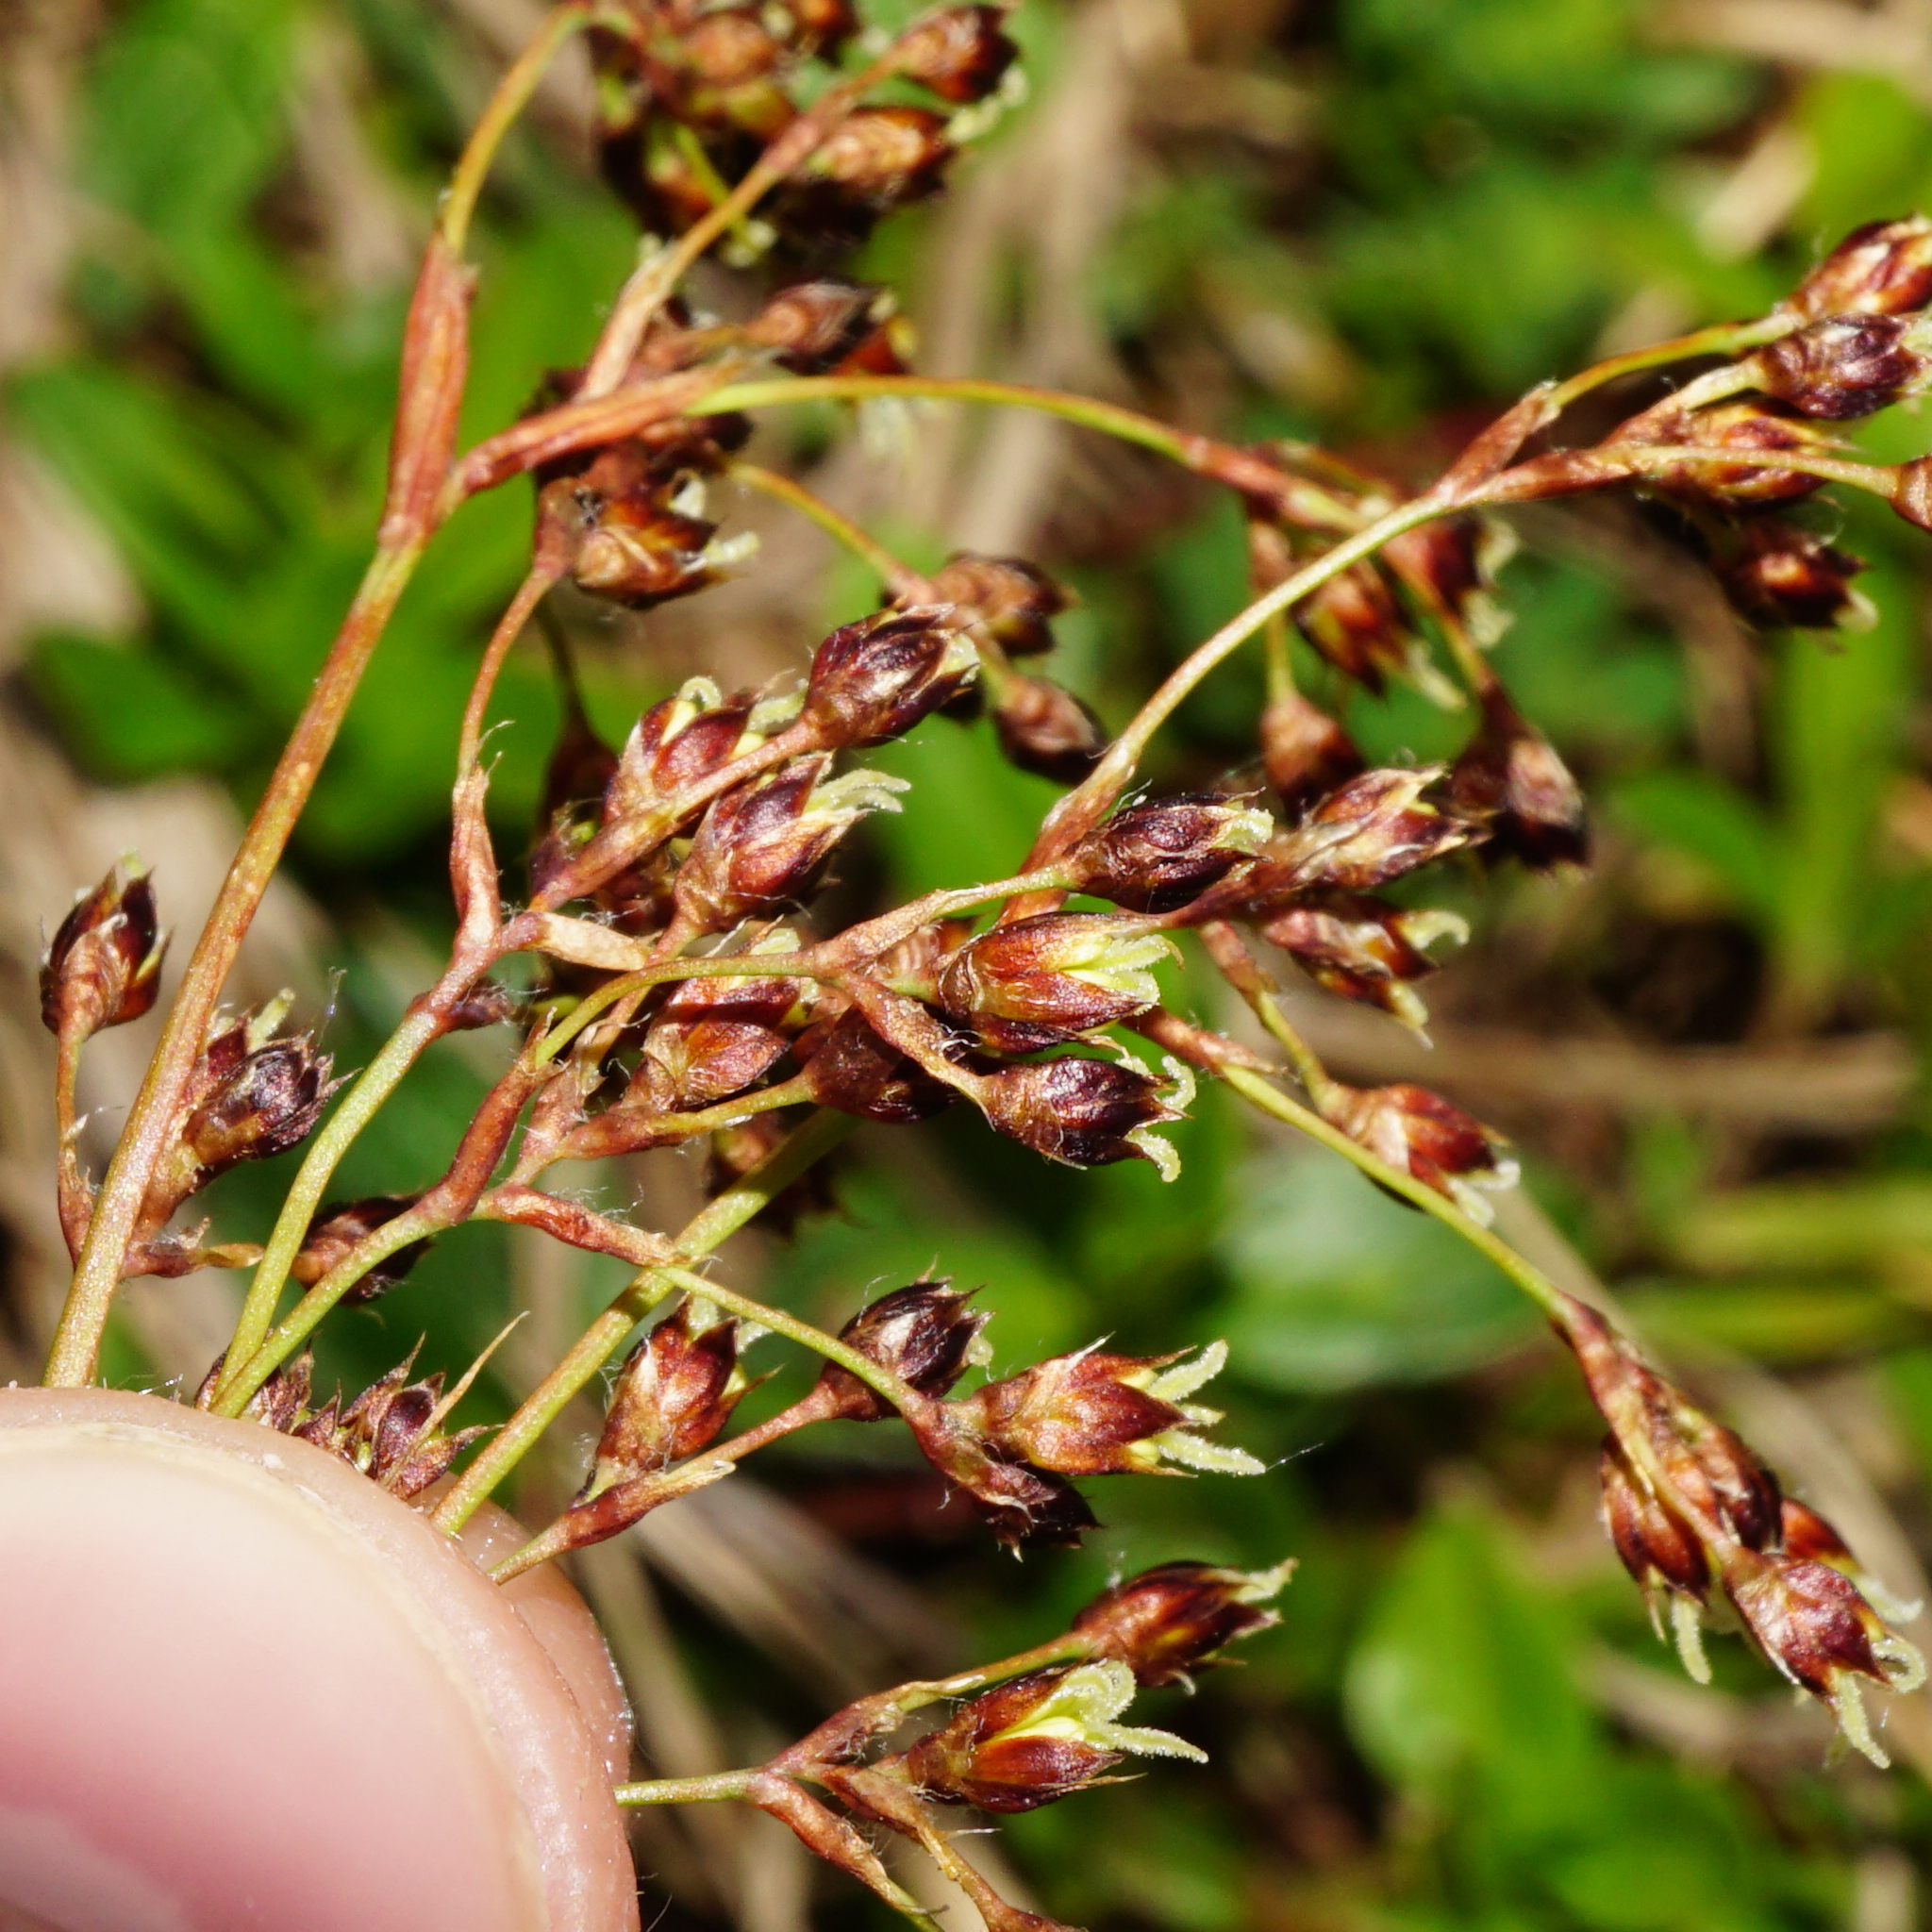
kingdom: Plantae
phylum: Tracheophyta
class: Liliopsida
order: Poales
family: Juncaceae
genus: Luzula
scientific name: Luzula glabrata
